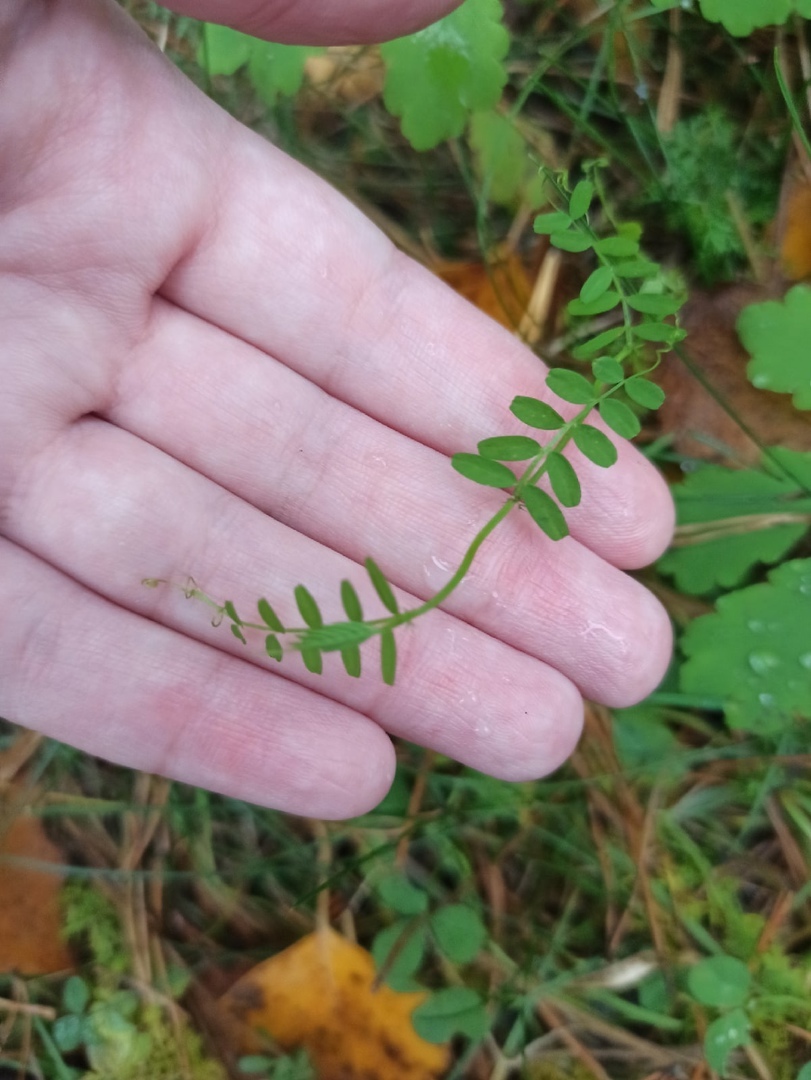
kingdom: Plantae
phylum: Tracheophyta
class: Magnoliopsida
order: Fabales
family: Fabaceae
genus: Vicia
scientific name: Vicia sylvatica
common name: Wood vetch
